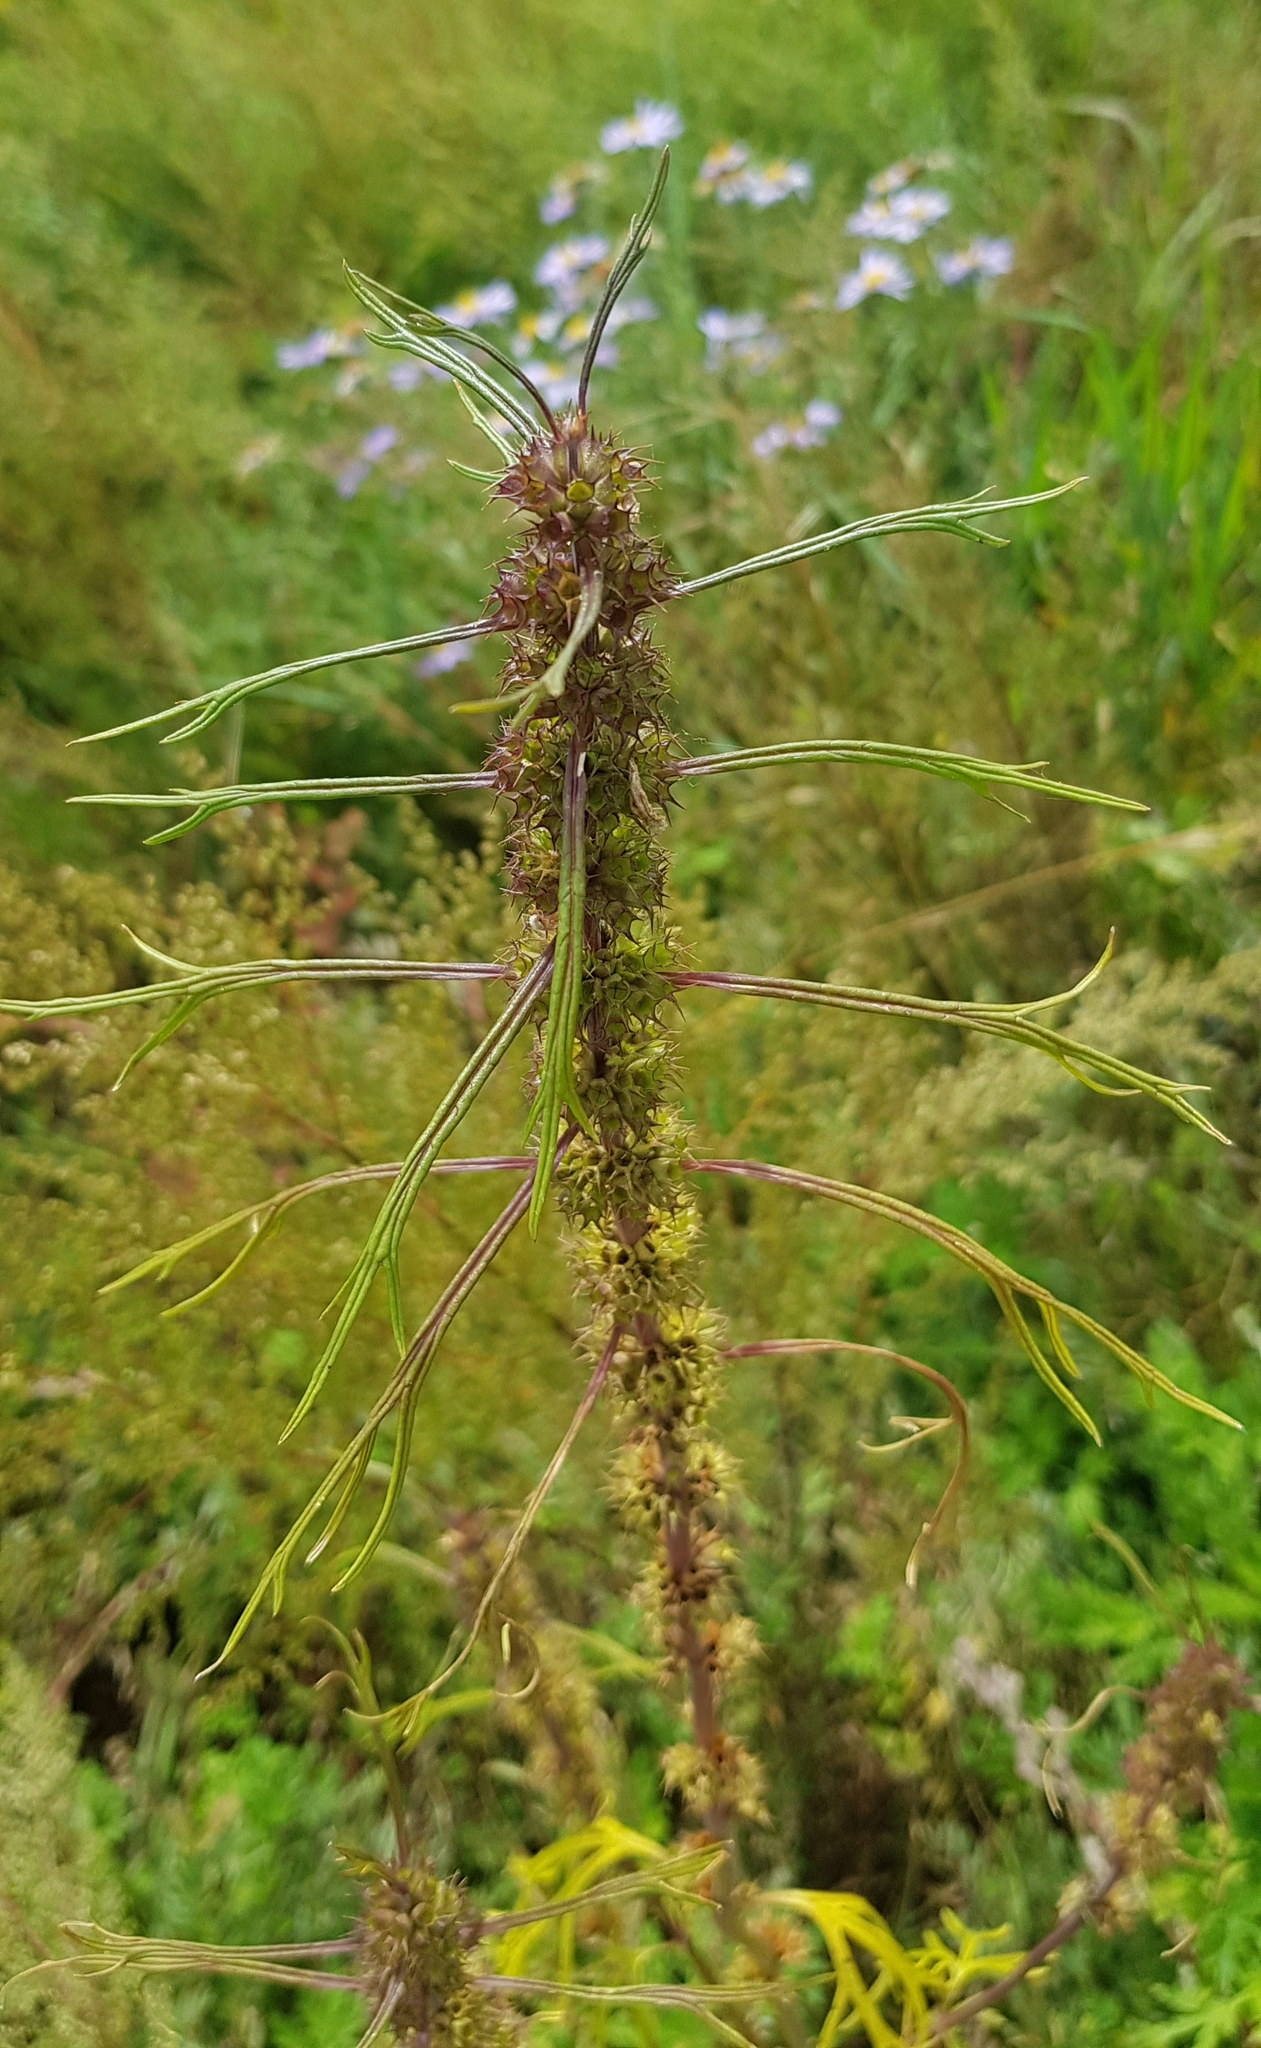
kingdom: Plantae
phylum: Tracheophyta
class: Magnoliopsida
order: Lamiales
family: Lamiaceae
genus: Leonurus
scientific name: Leonurus sibiricus
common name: Honeyweed
